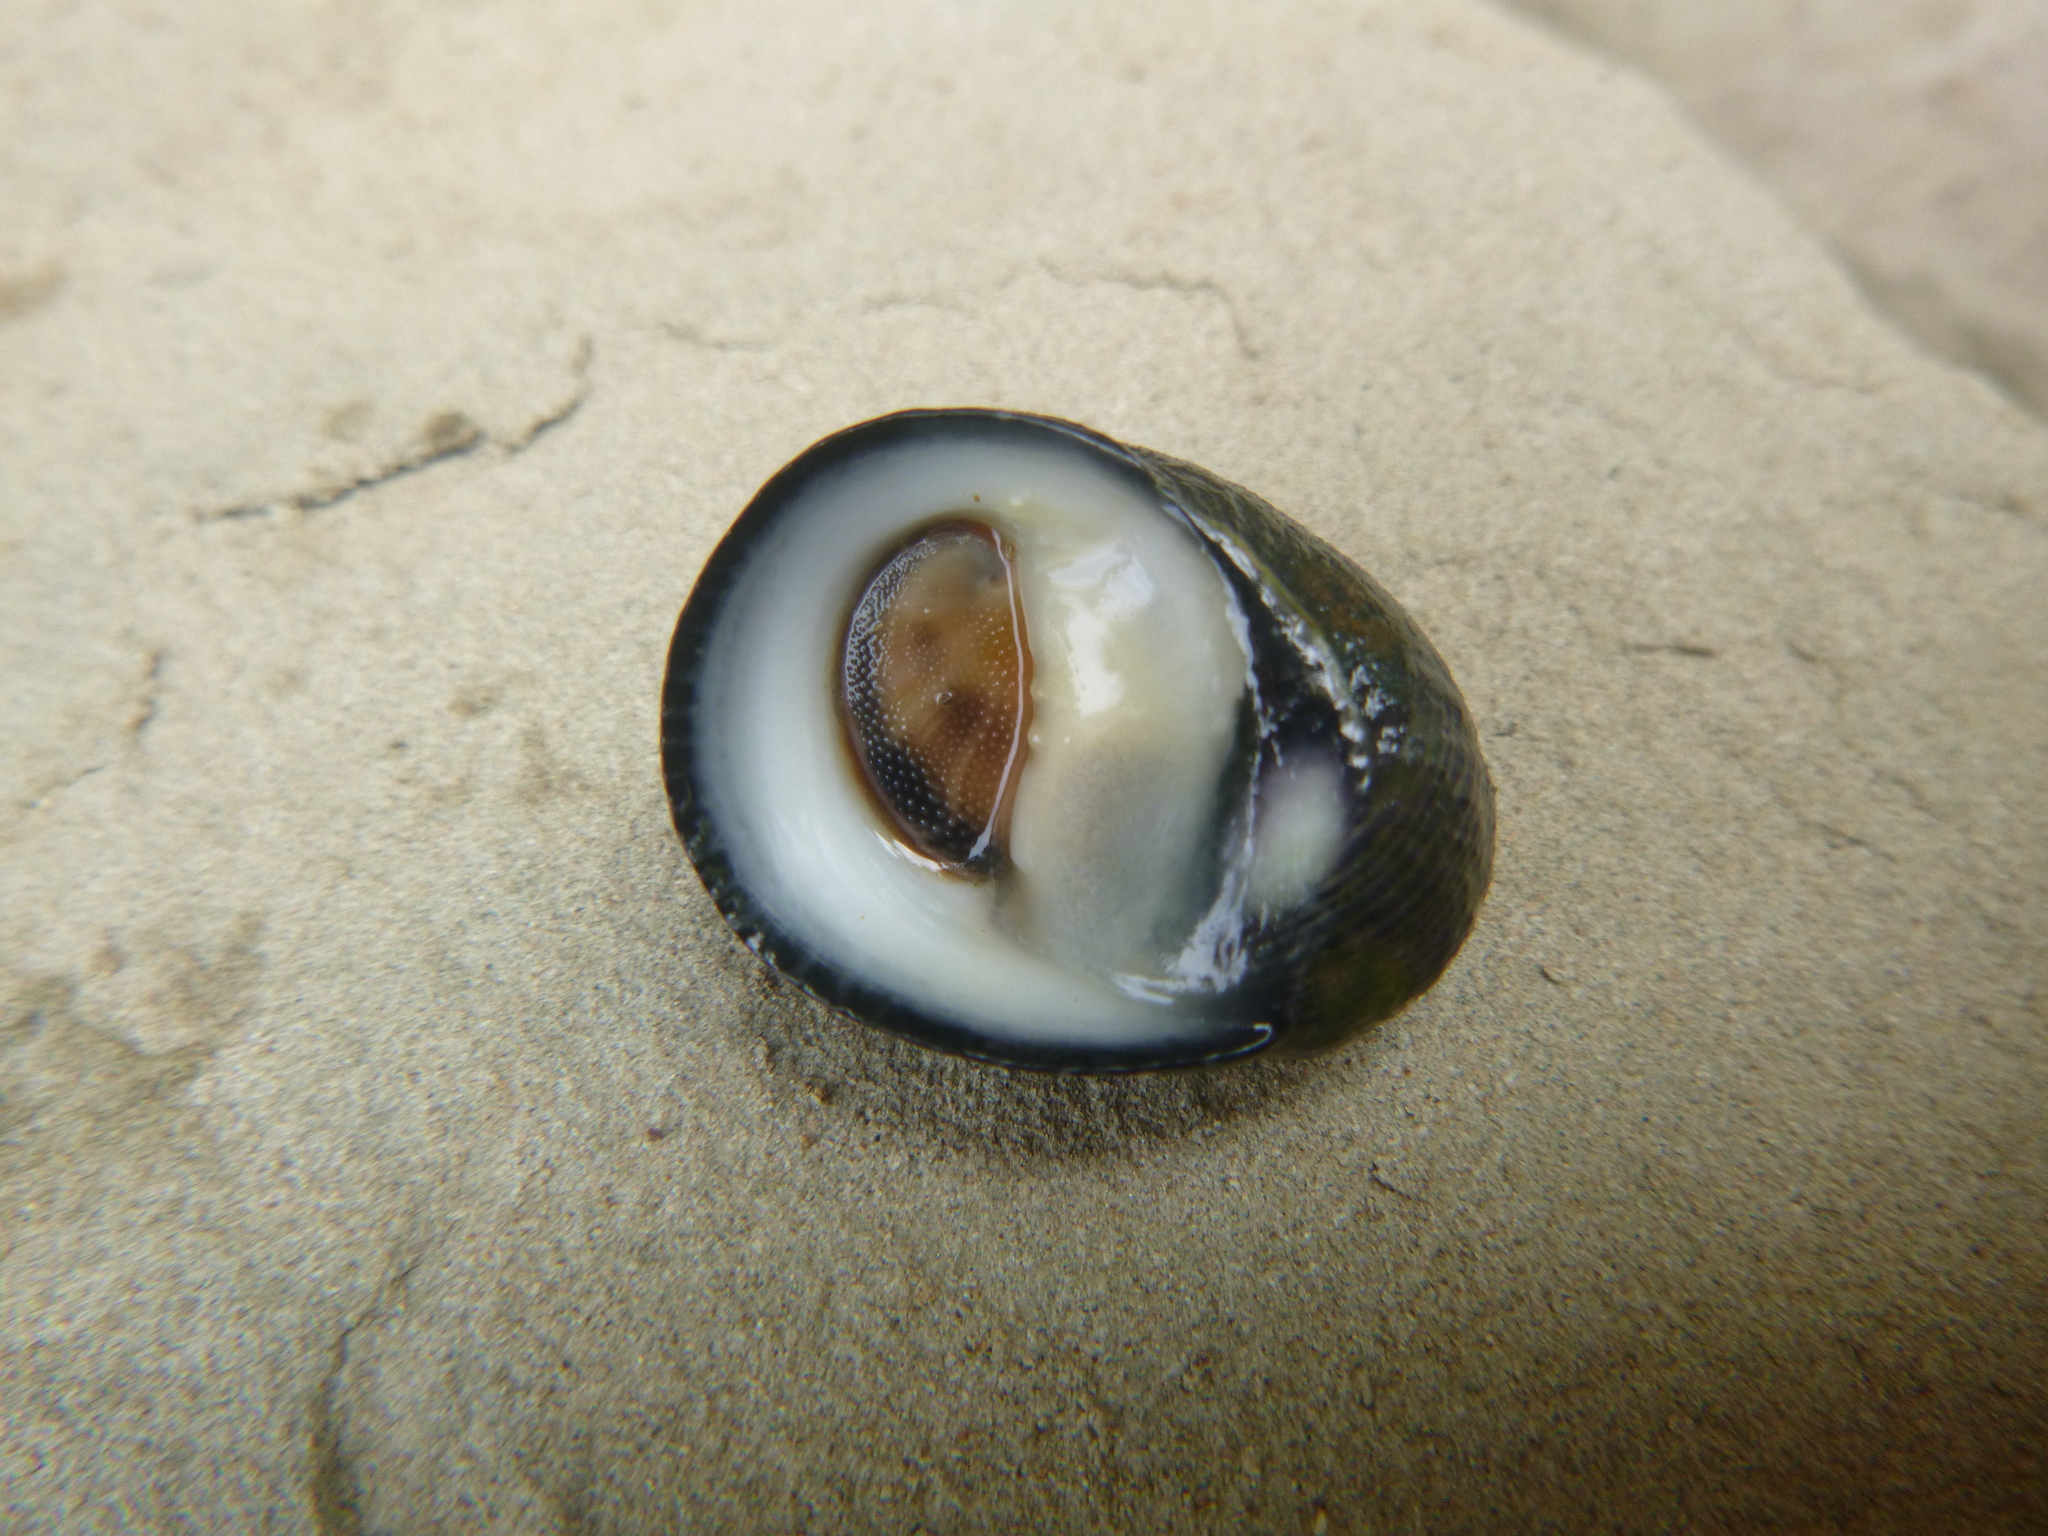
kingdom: Animalia
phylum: Mollusca
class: Gastropoda
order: Cycloneritida
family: Neritidae
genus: Nerita
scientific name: Nerita melanotragus
